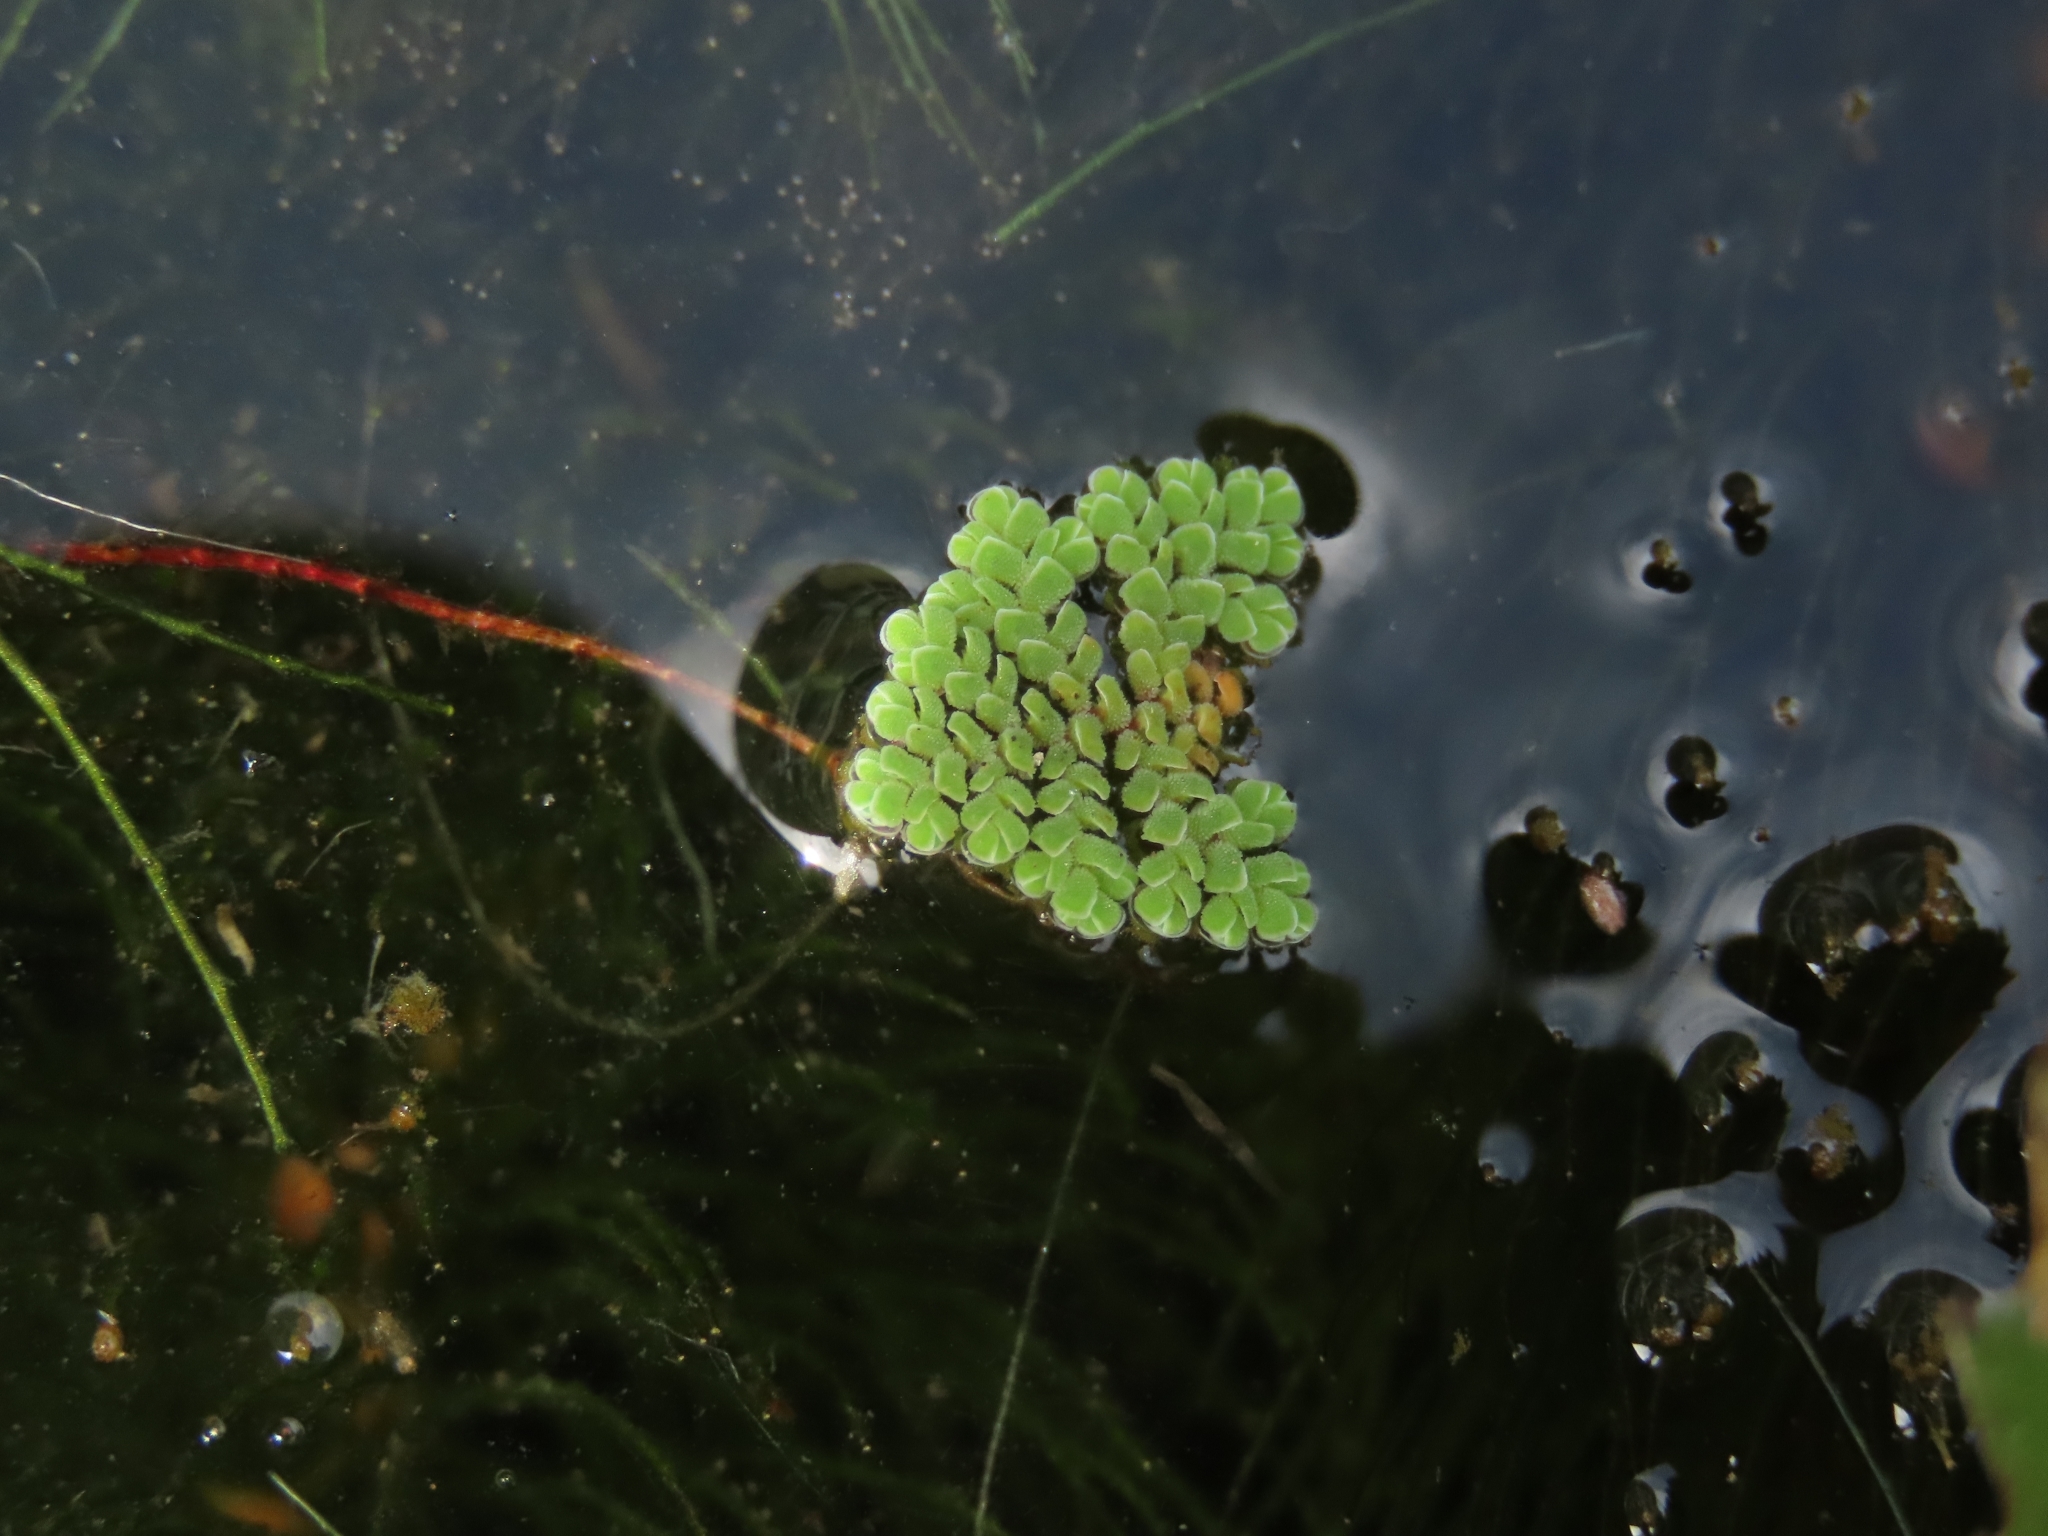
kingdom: Plantae
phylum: Tracheophyta
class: Polypodiopsida
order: Salviniales
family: Salviniaceae
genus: Azolla
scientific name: Azolla pinnata
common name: Ferny azolla
